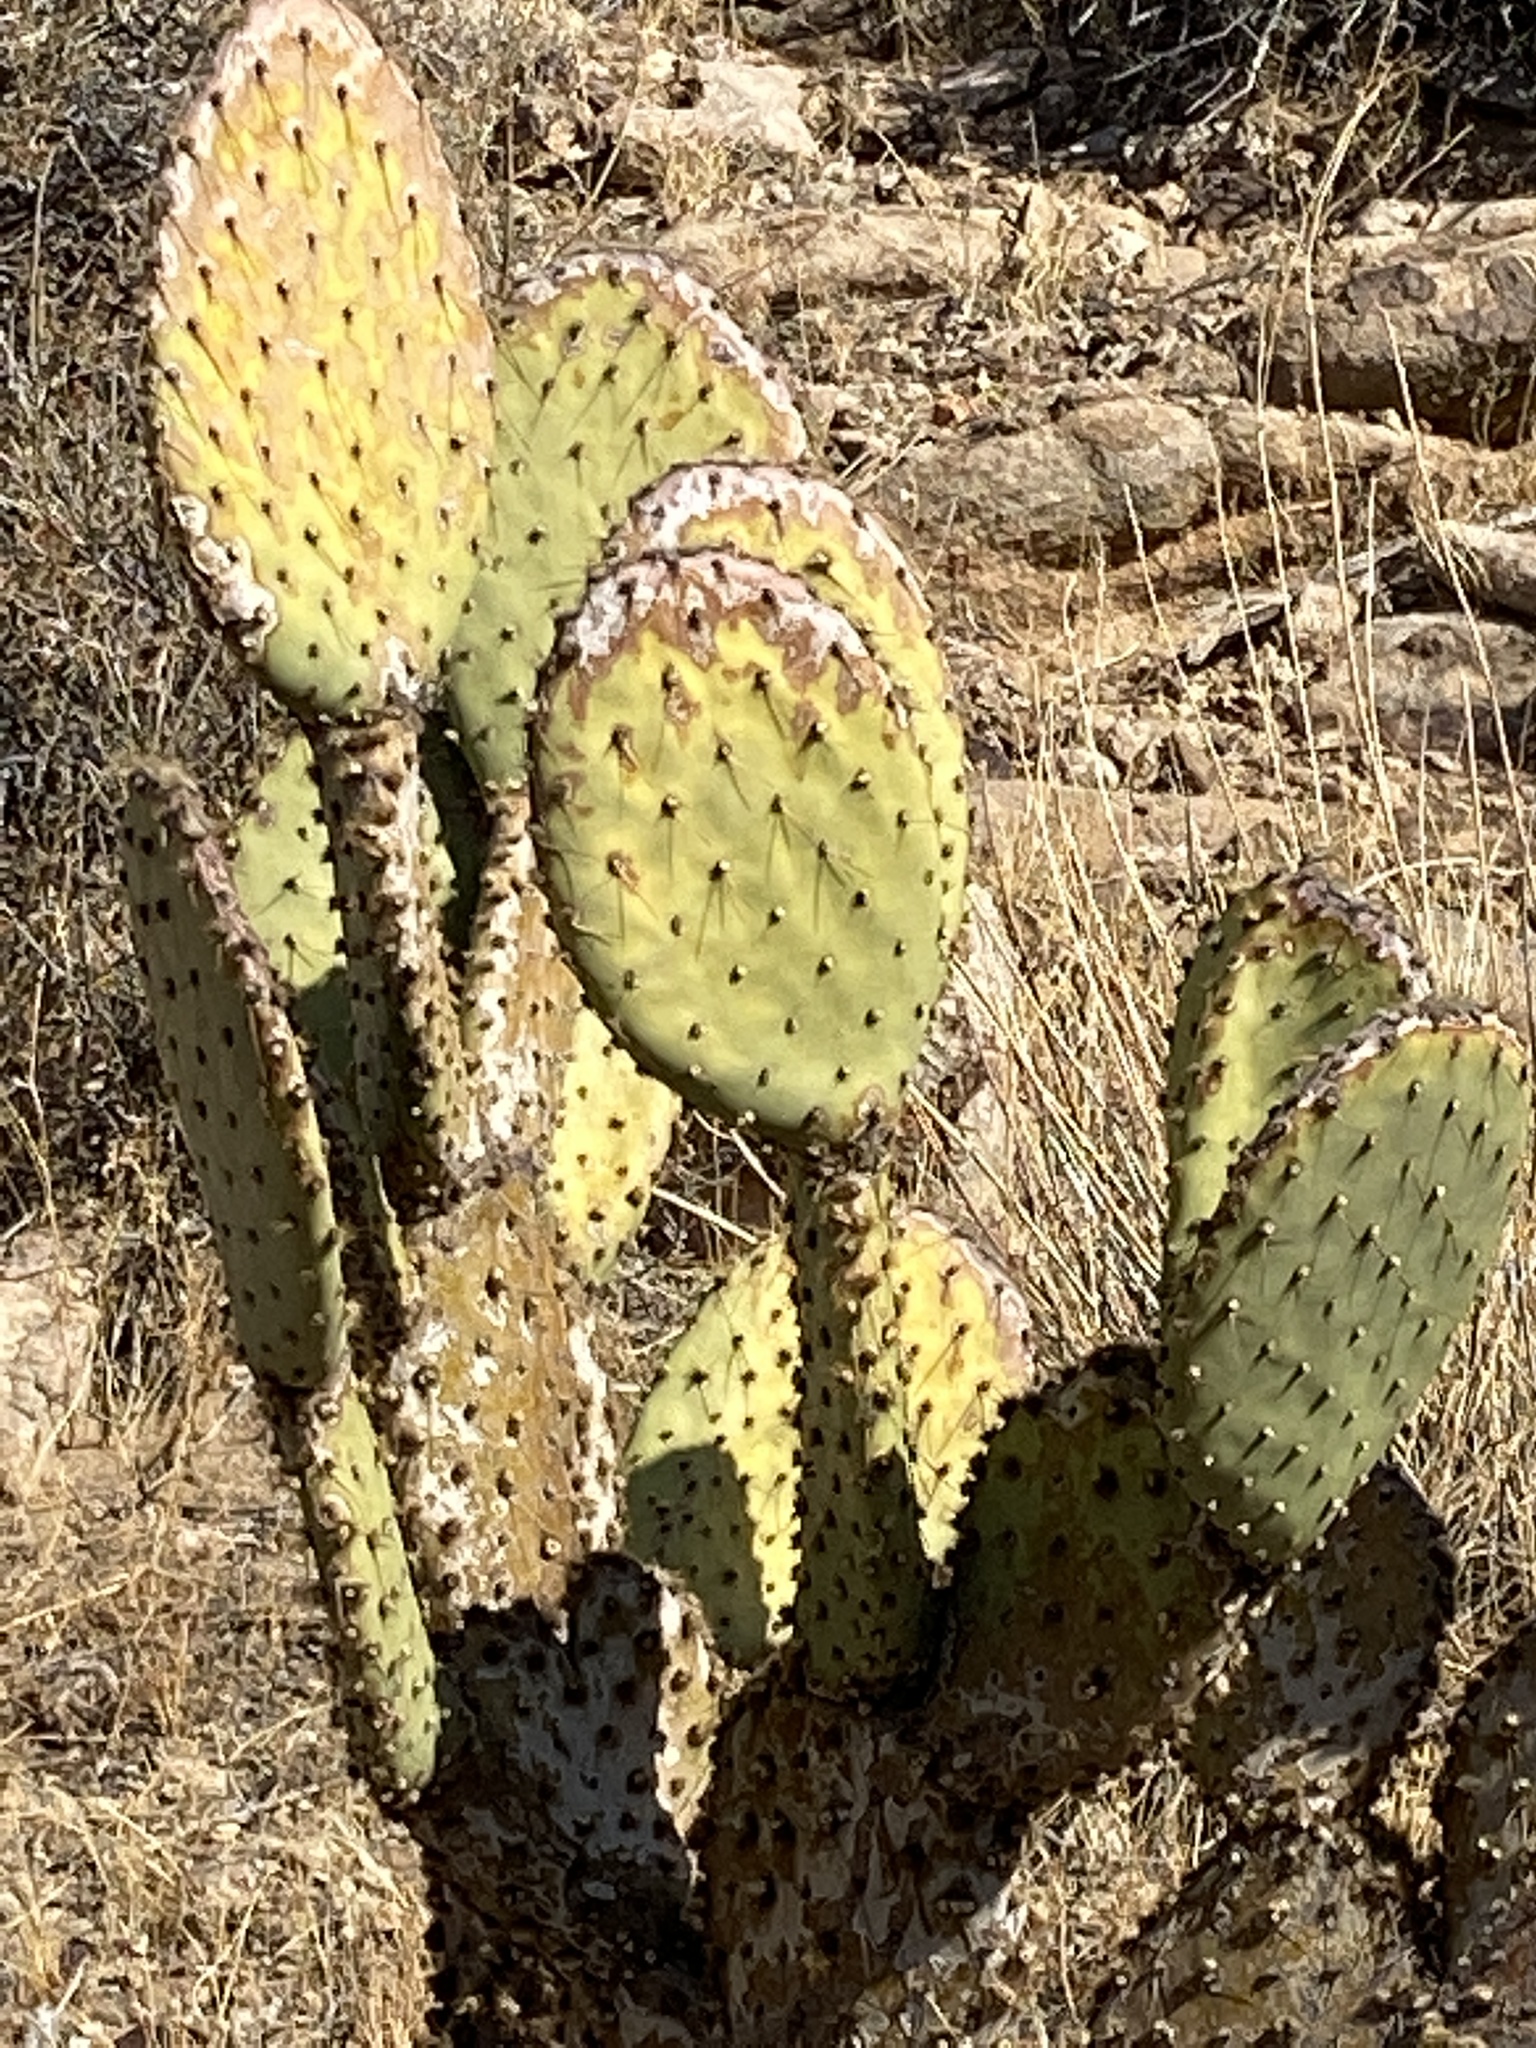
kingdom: Plantae
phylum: Tracheophyta
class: Magnoliopsida
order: Caryophyllales
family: Cactaceae
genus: Opuntia
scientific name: Opuntia chlorotica
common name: Dollar-joint prickly-pear
